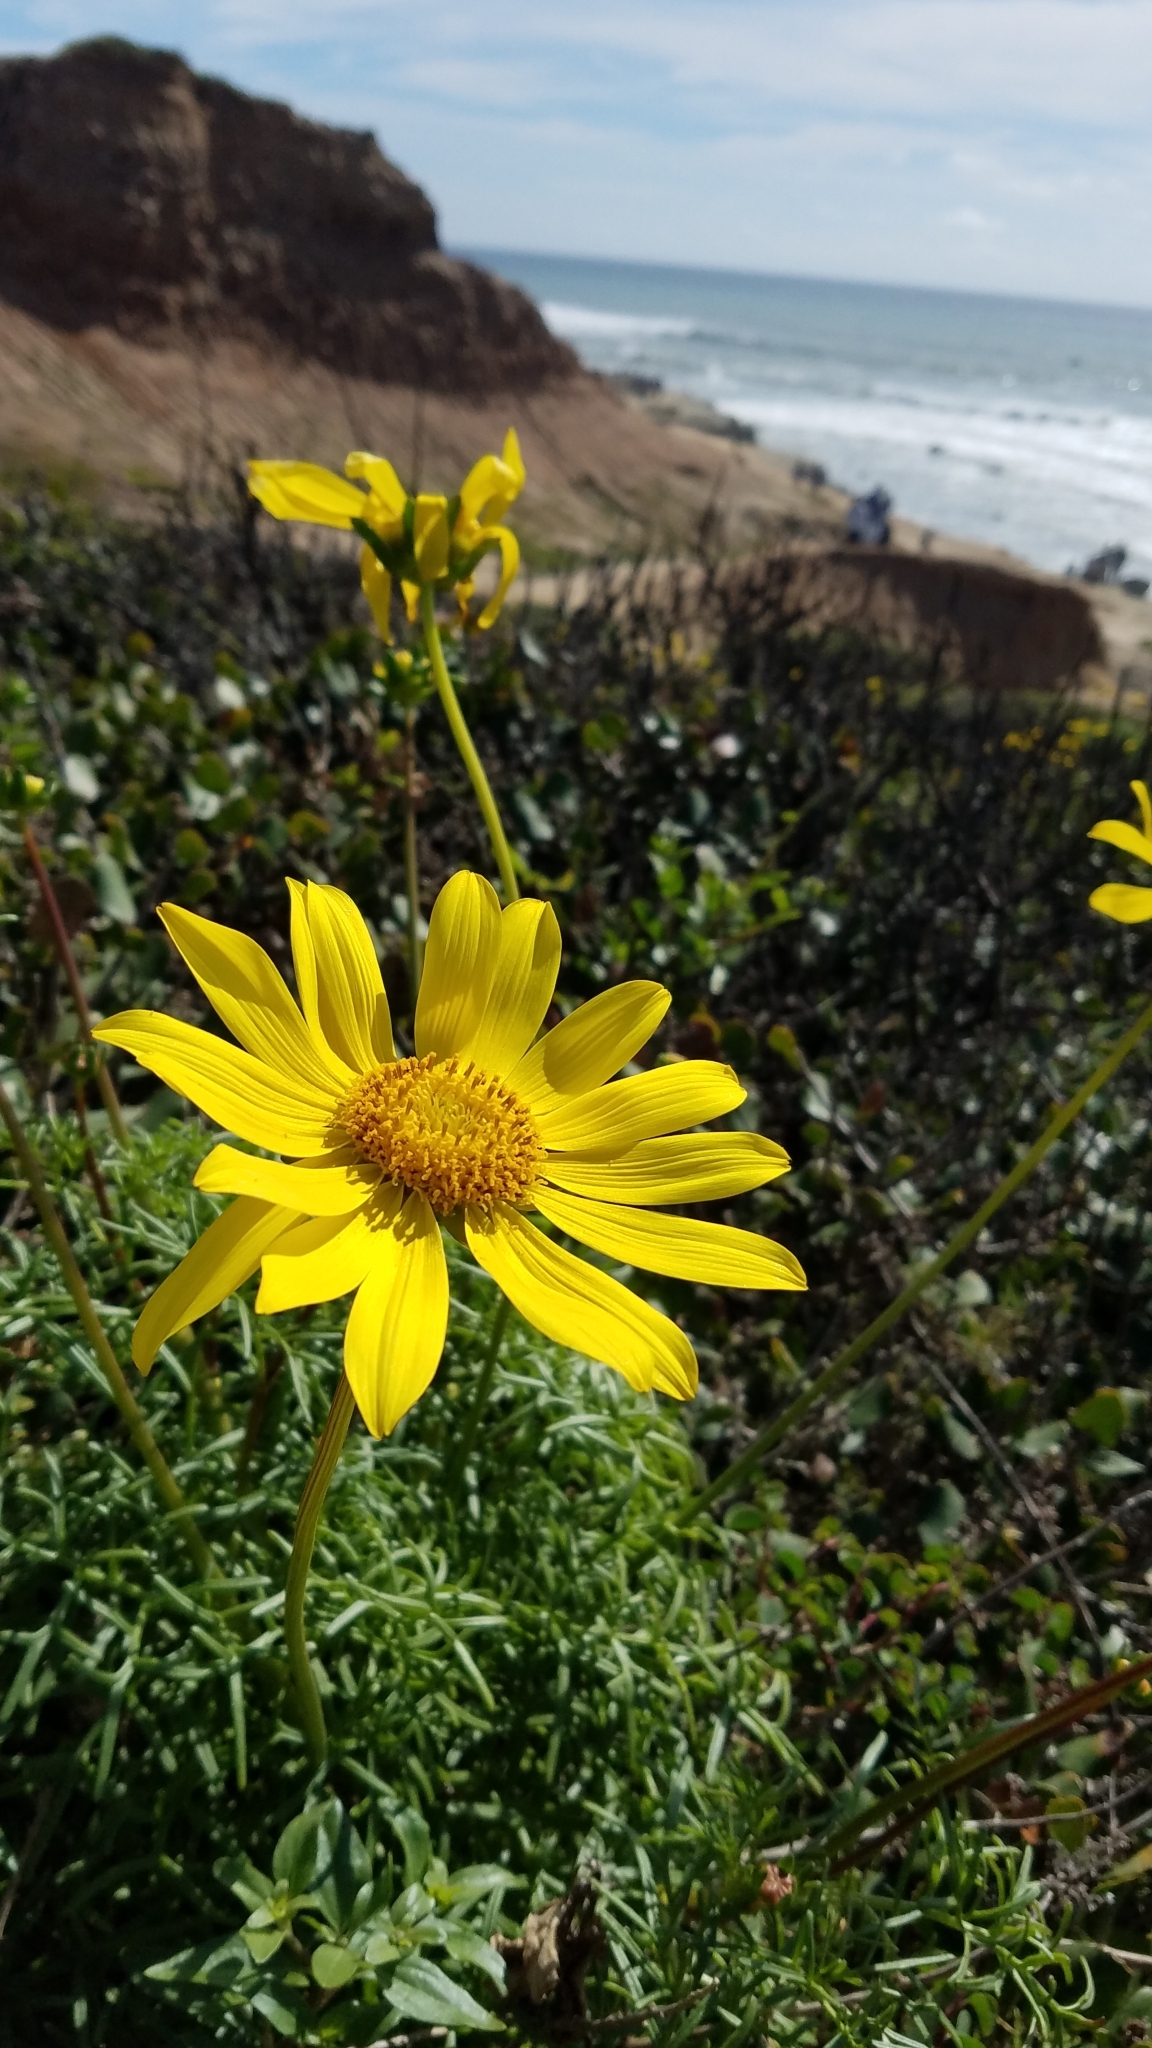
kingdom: Plantae
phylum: Tracheophyta
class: Magnoliopsida
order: Asterales
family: Asteraceae
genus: Coreopsis
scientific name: Coreopsis maritima
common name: Sea-dahlia
